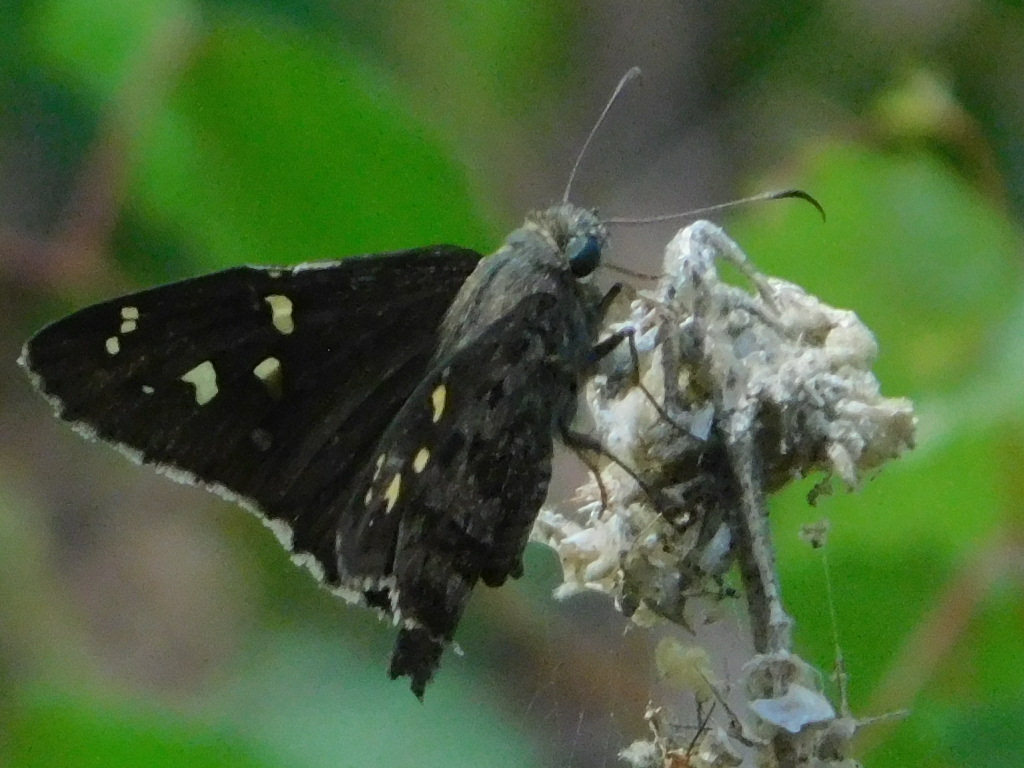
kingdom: Animalia
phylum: Arthropoda
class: Insecta
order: Lepidoptera
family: Hesperiidae
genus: Thorybes
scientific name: Thorybes
